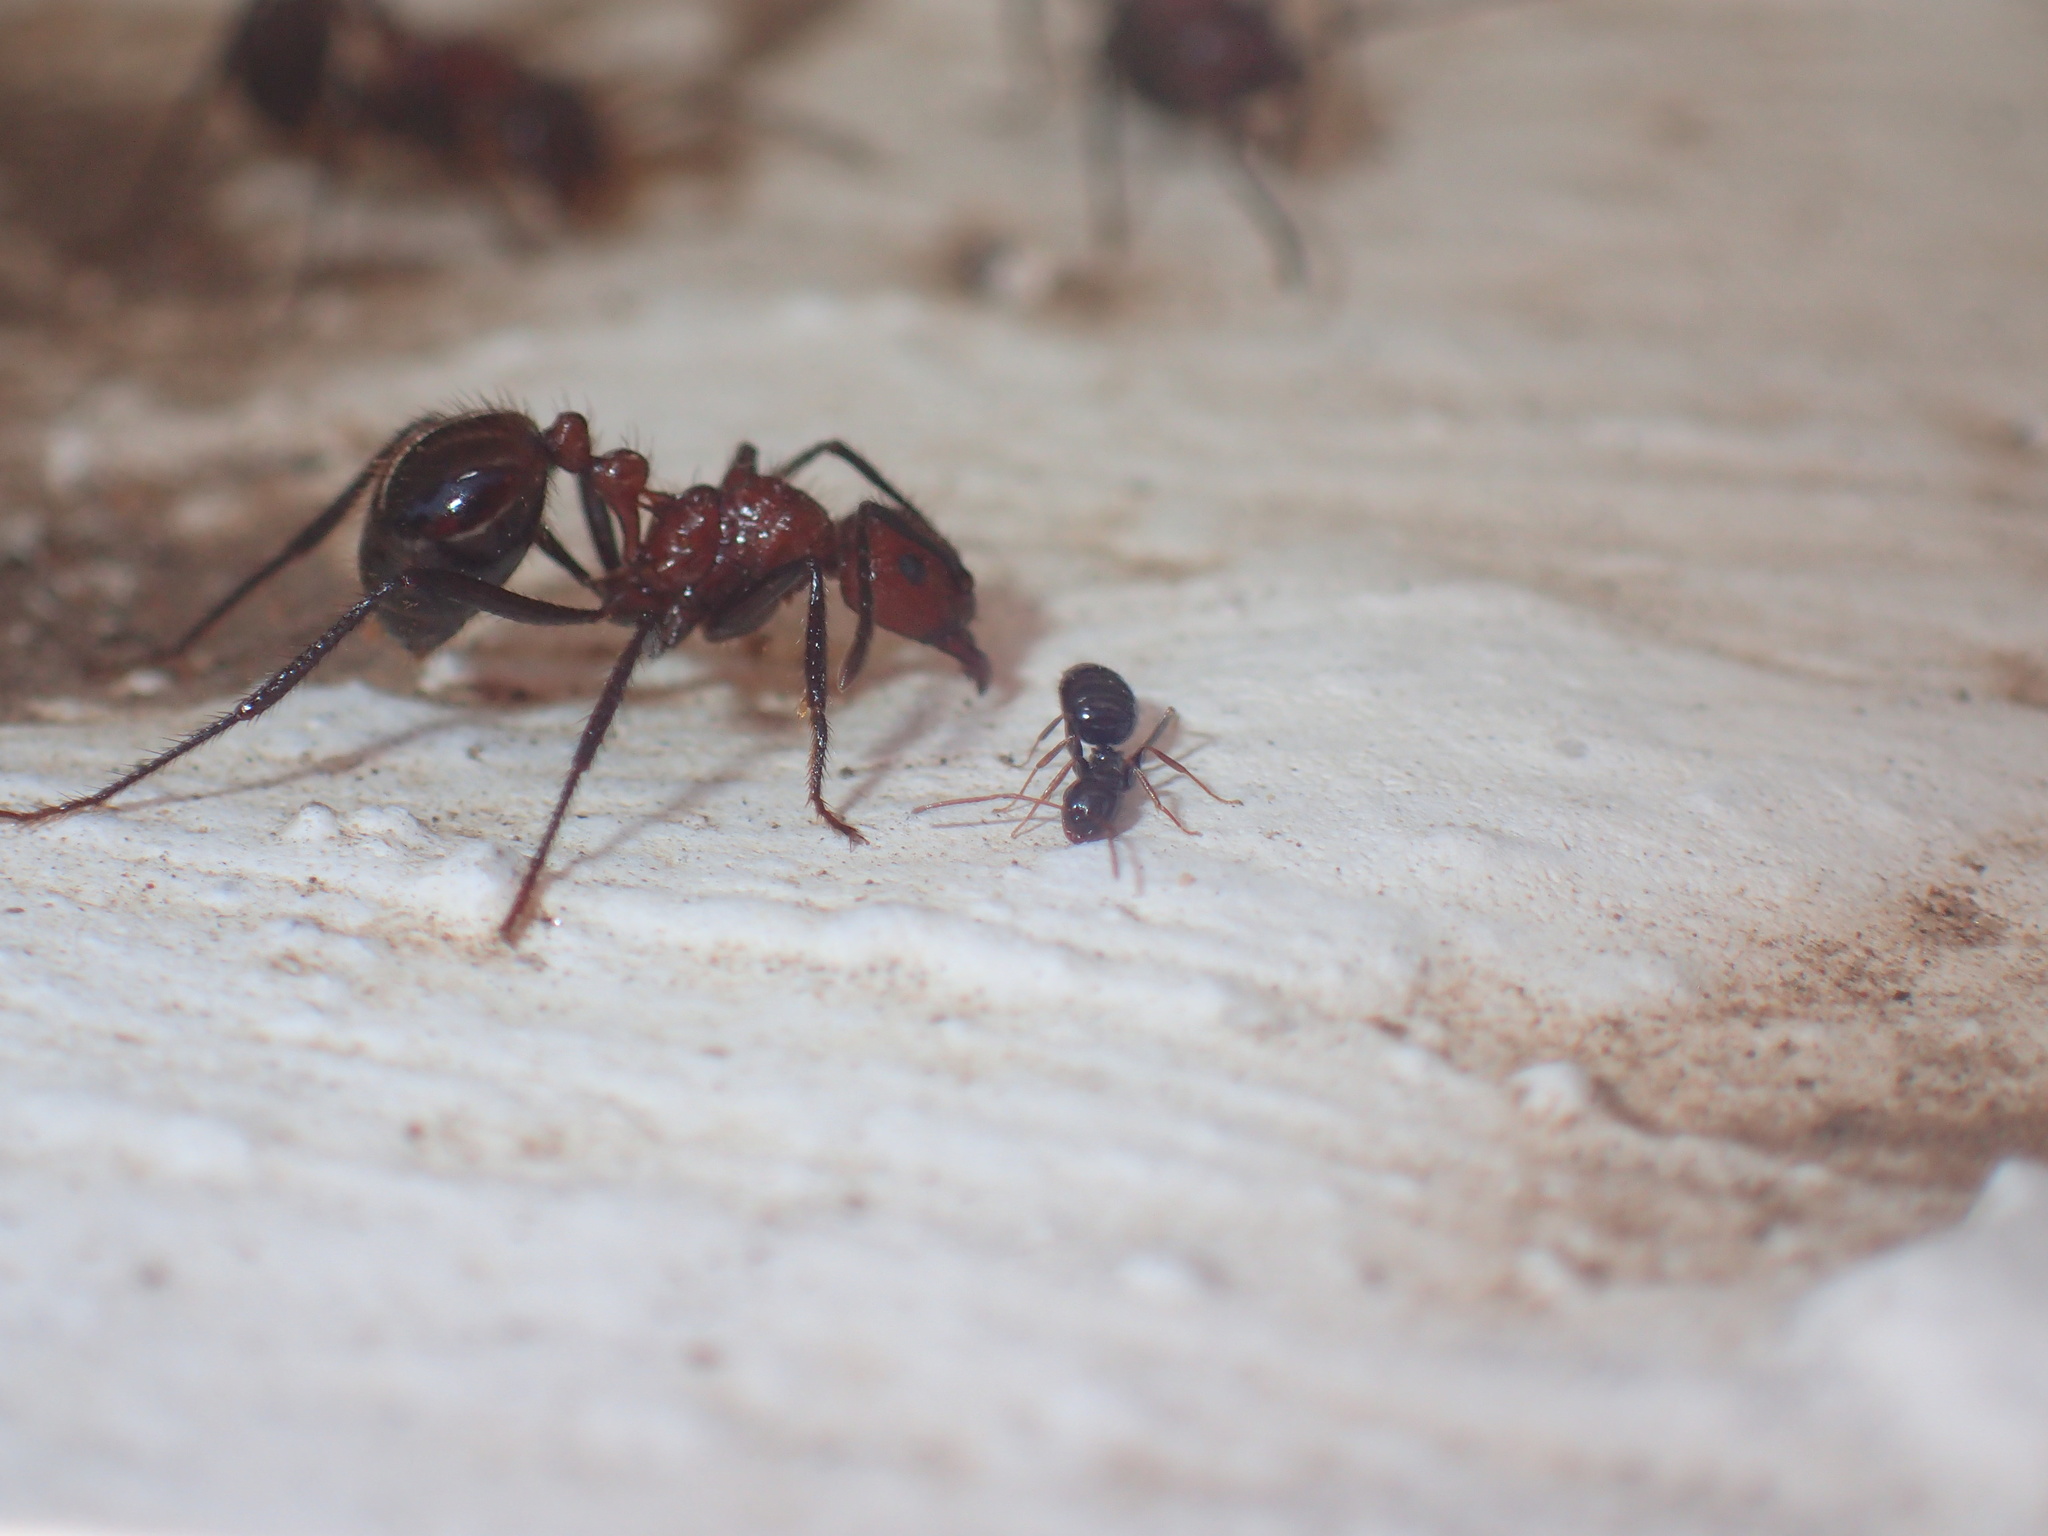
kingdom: Animalia
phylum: Arthropoda
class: Insecta
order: Hymenoptera
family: Formicidae
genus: Myrmicaria
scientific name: Myrmicaria natalensis
